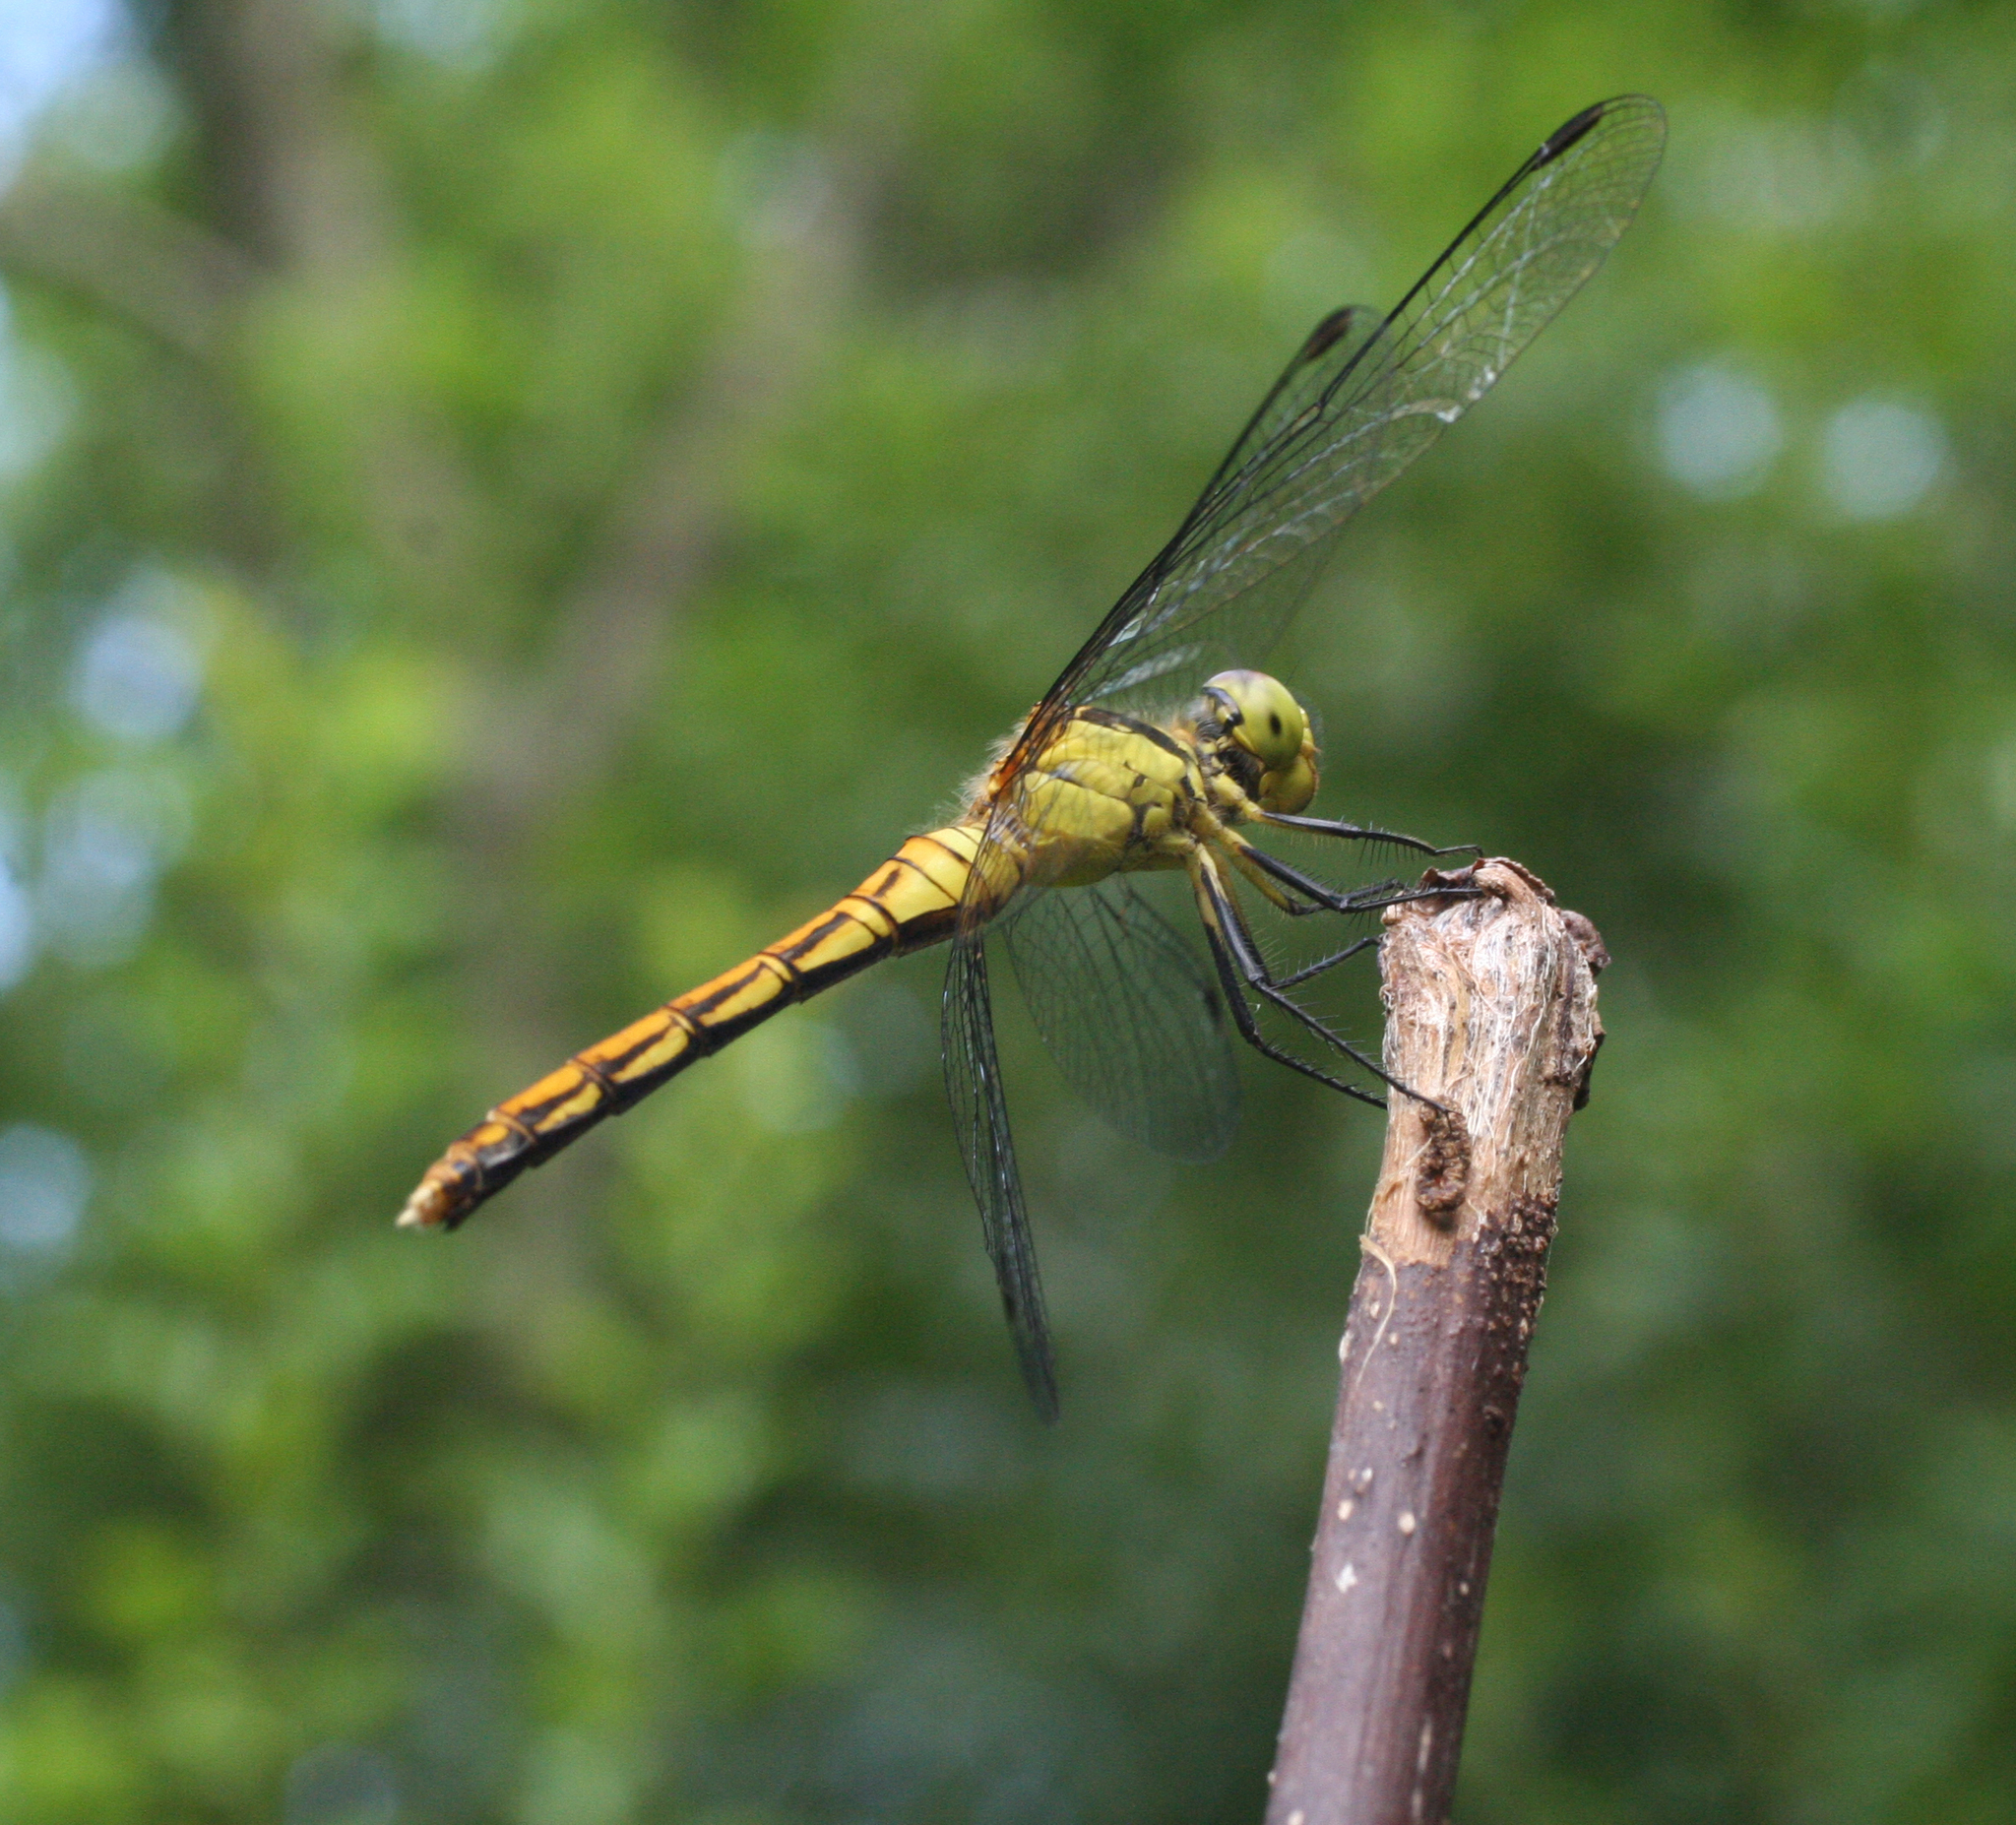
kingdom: Animalia
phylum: Arthropoda
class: Insecta
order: Odonata
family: Libellulidae
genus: Sympetrum
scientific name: Sympetrum eroticum
